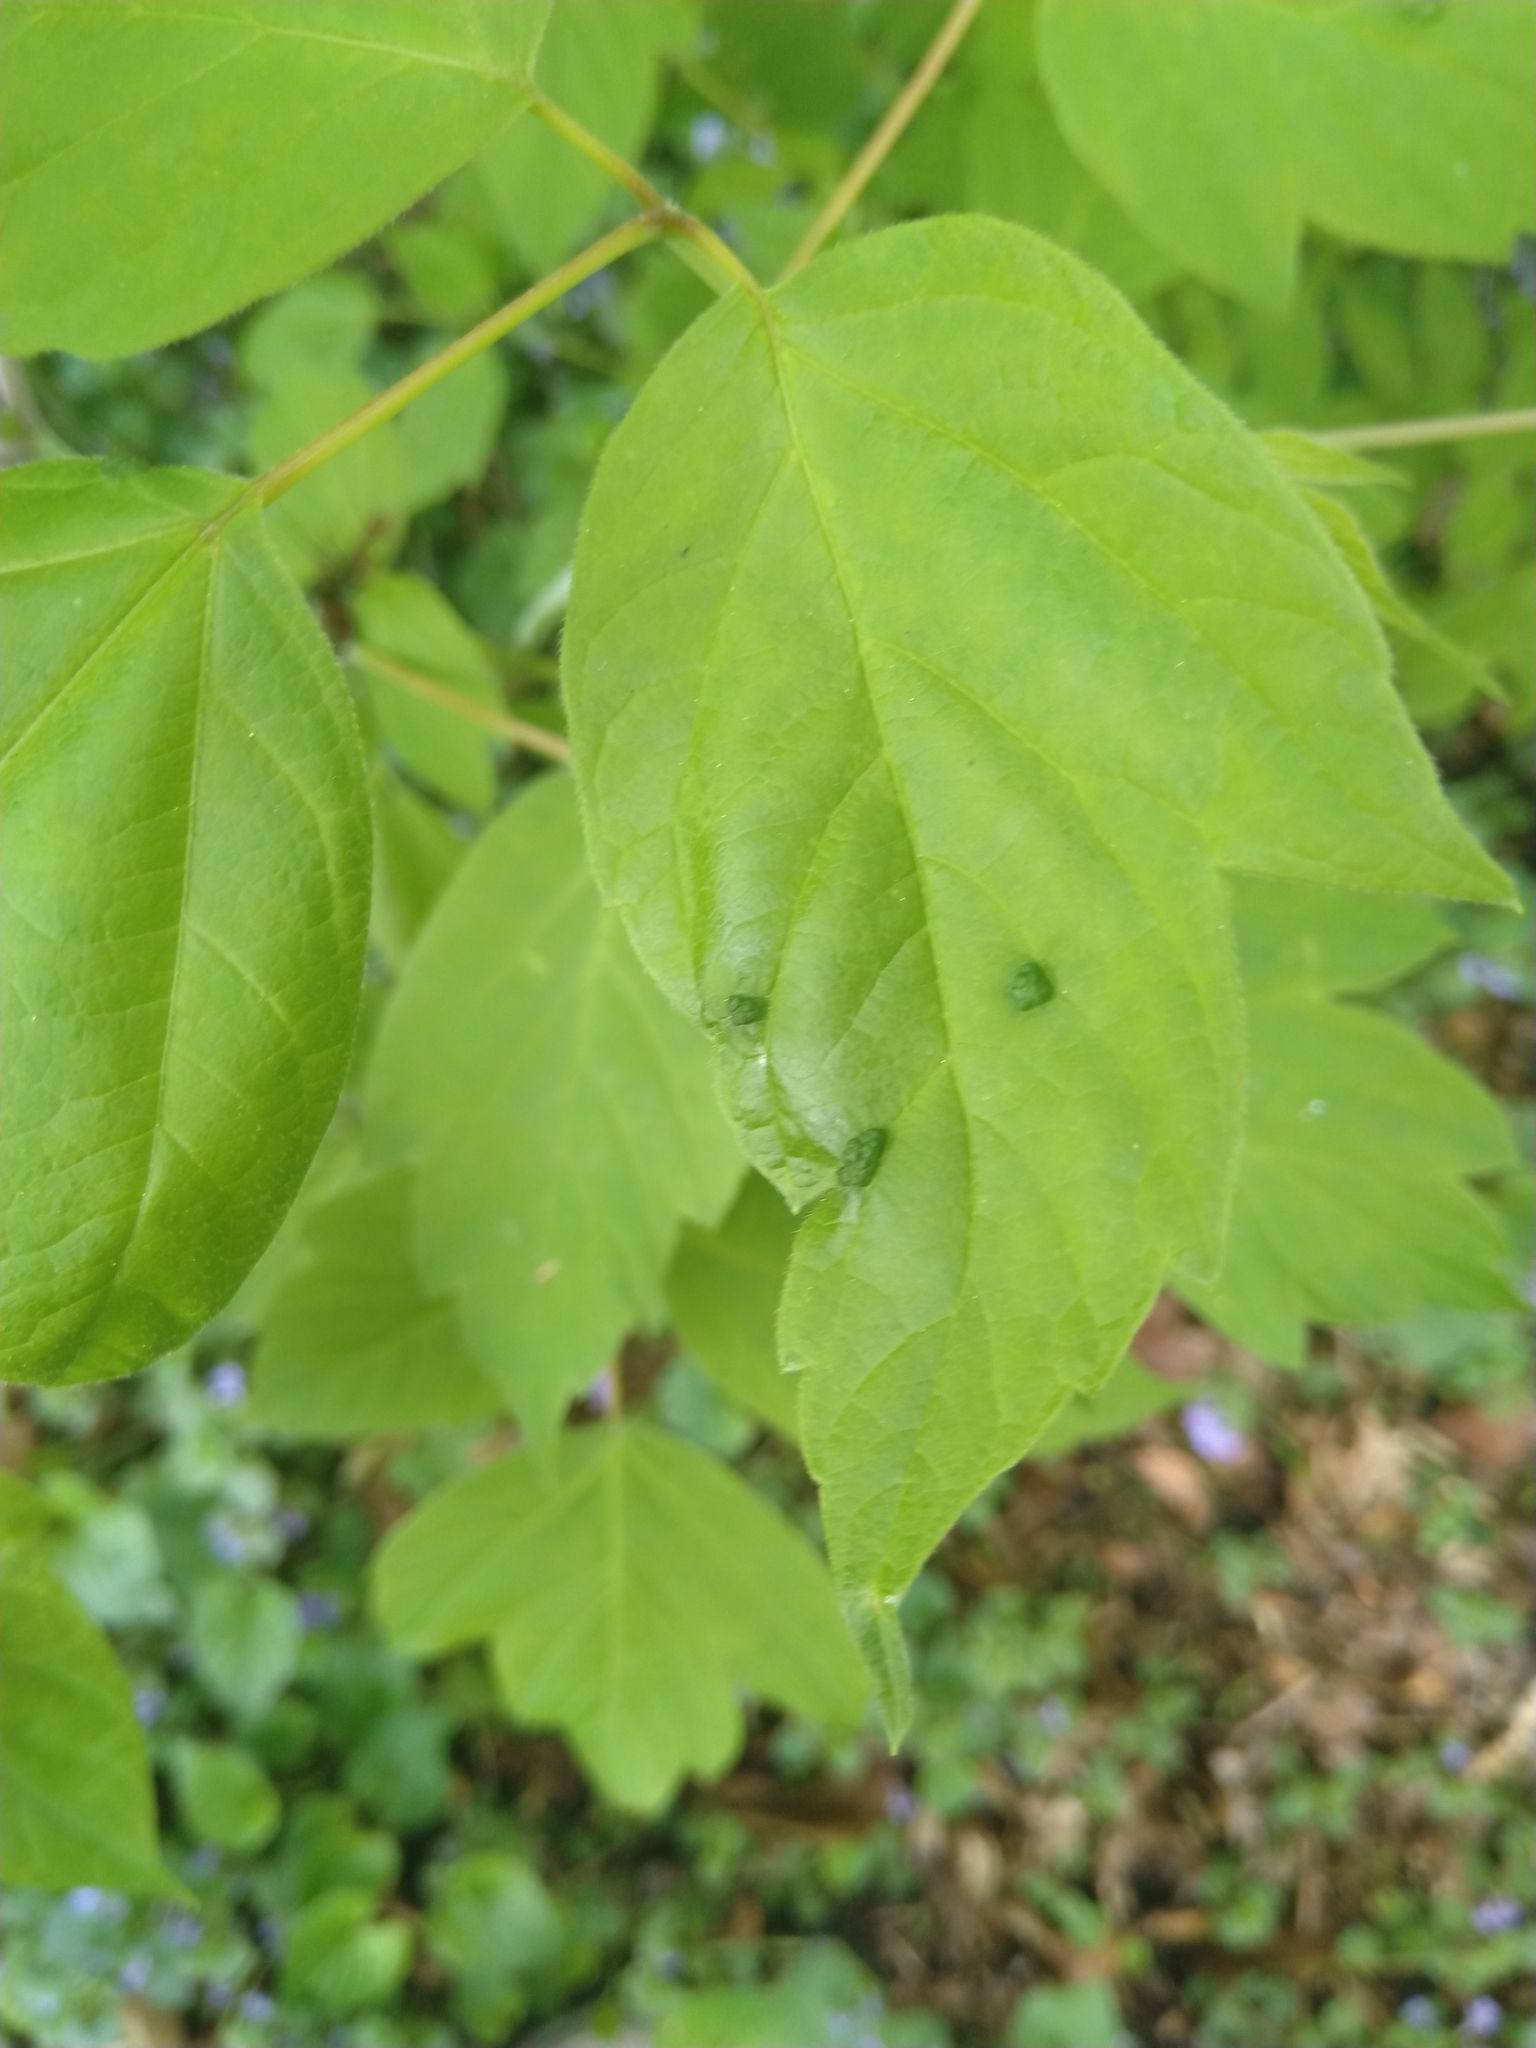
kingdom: Animalia
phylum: Arthropoda
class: Arachnida
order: Trombidiformes
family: Eriophyidae
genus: Aceria
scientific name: Aceria
